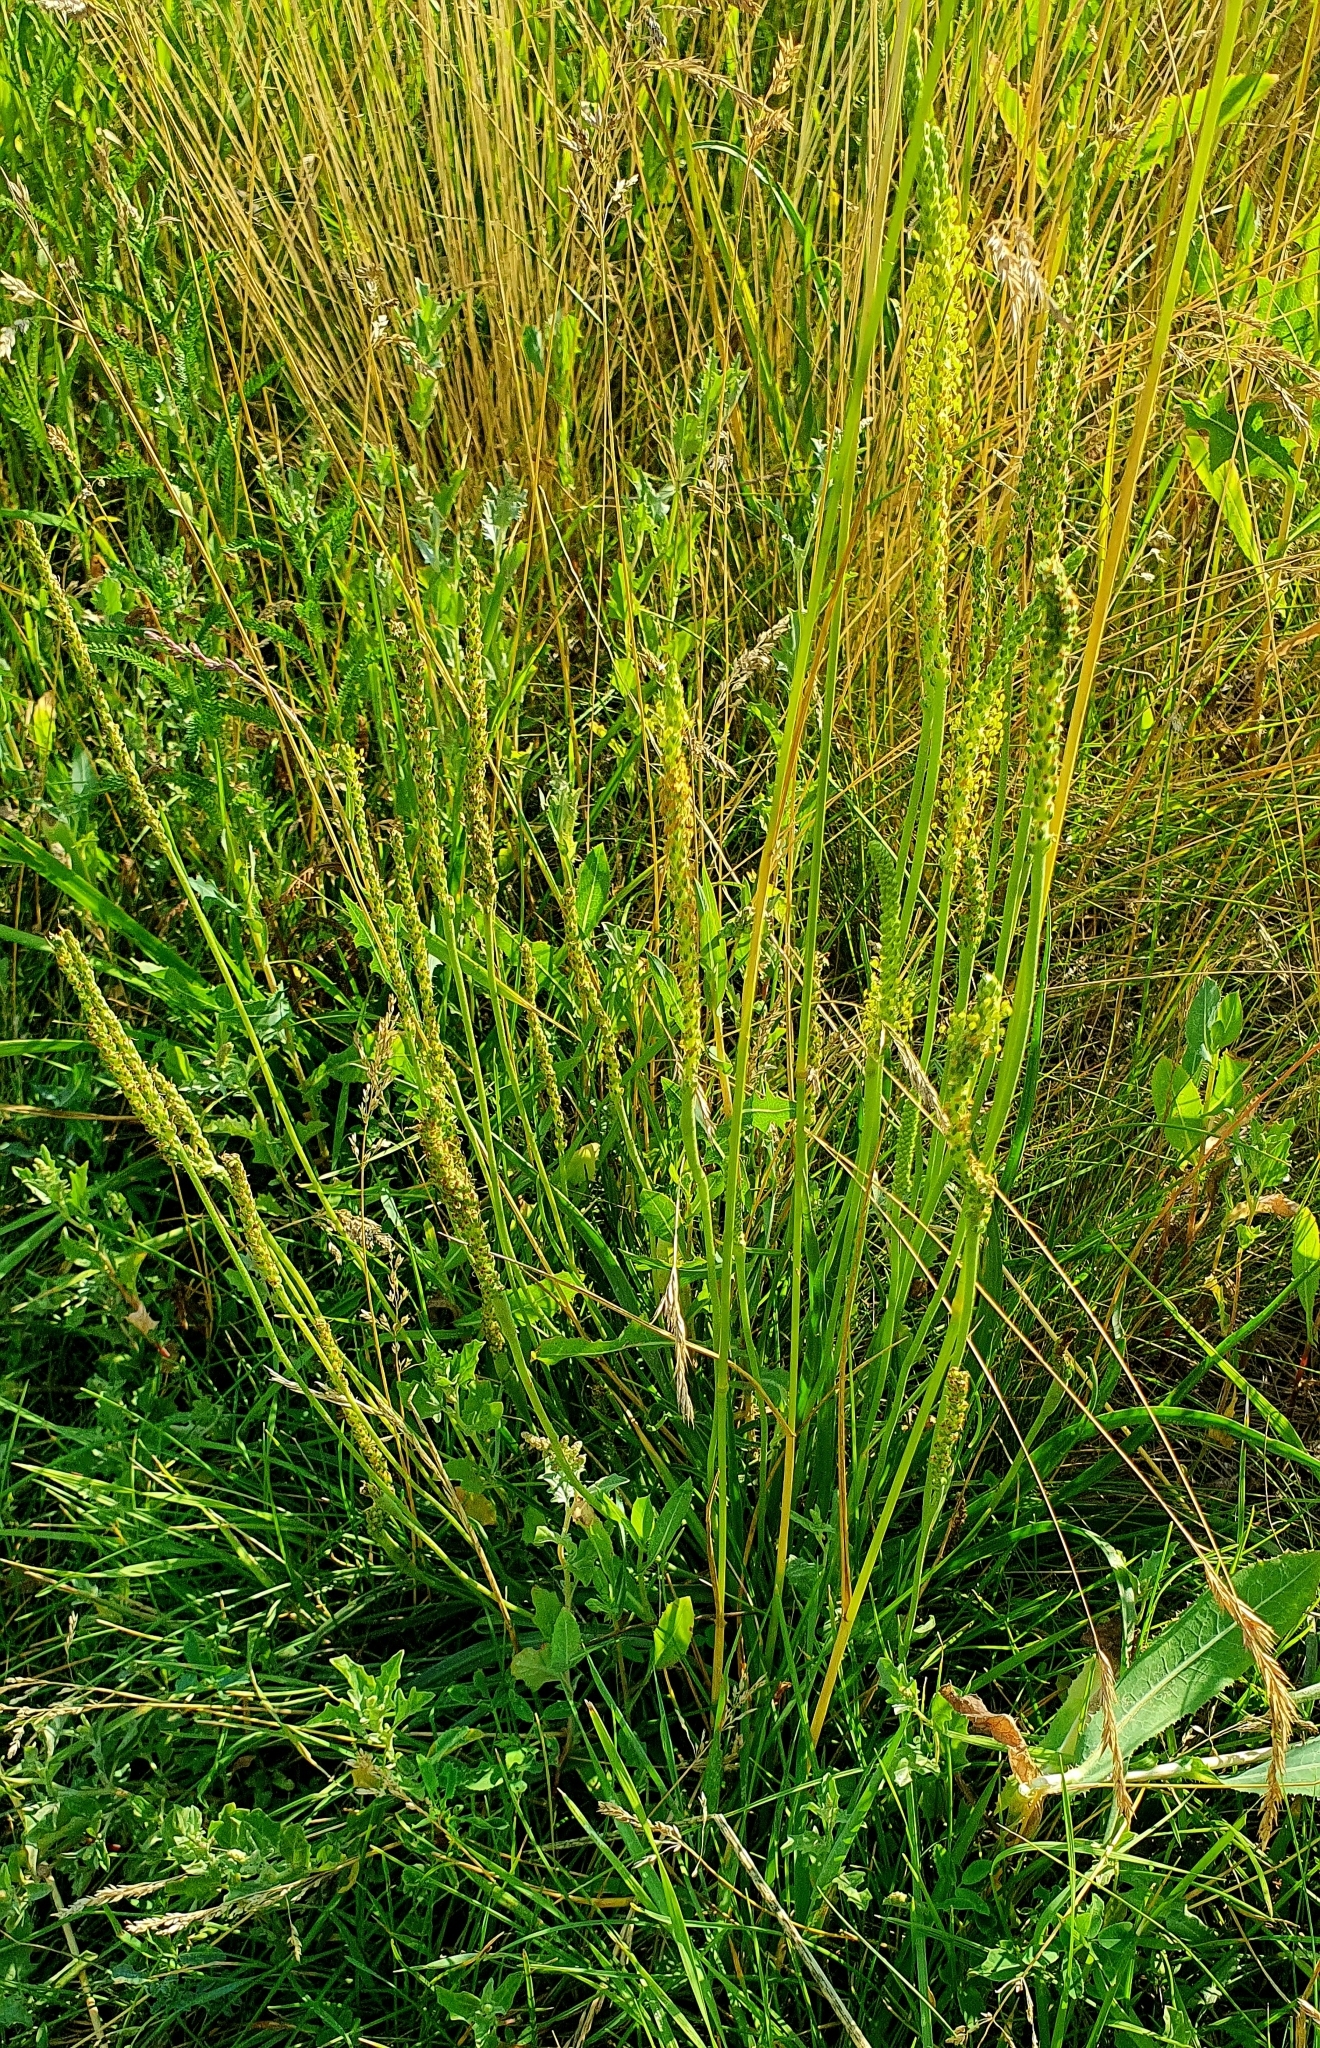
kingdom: Plantae
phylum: Tracheophyta
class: Magnoliopsida
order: Lamiales
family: Plantaginaceae
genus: Plantago
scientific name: Plantago salsa
